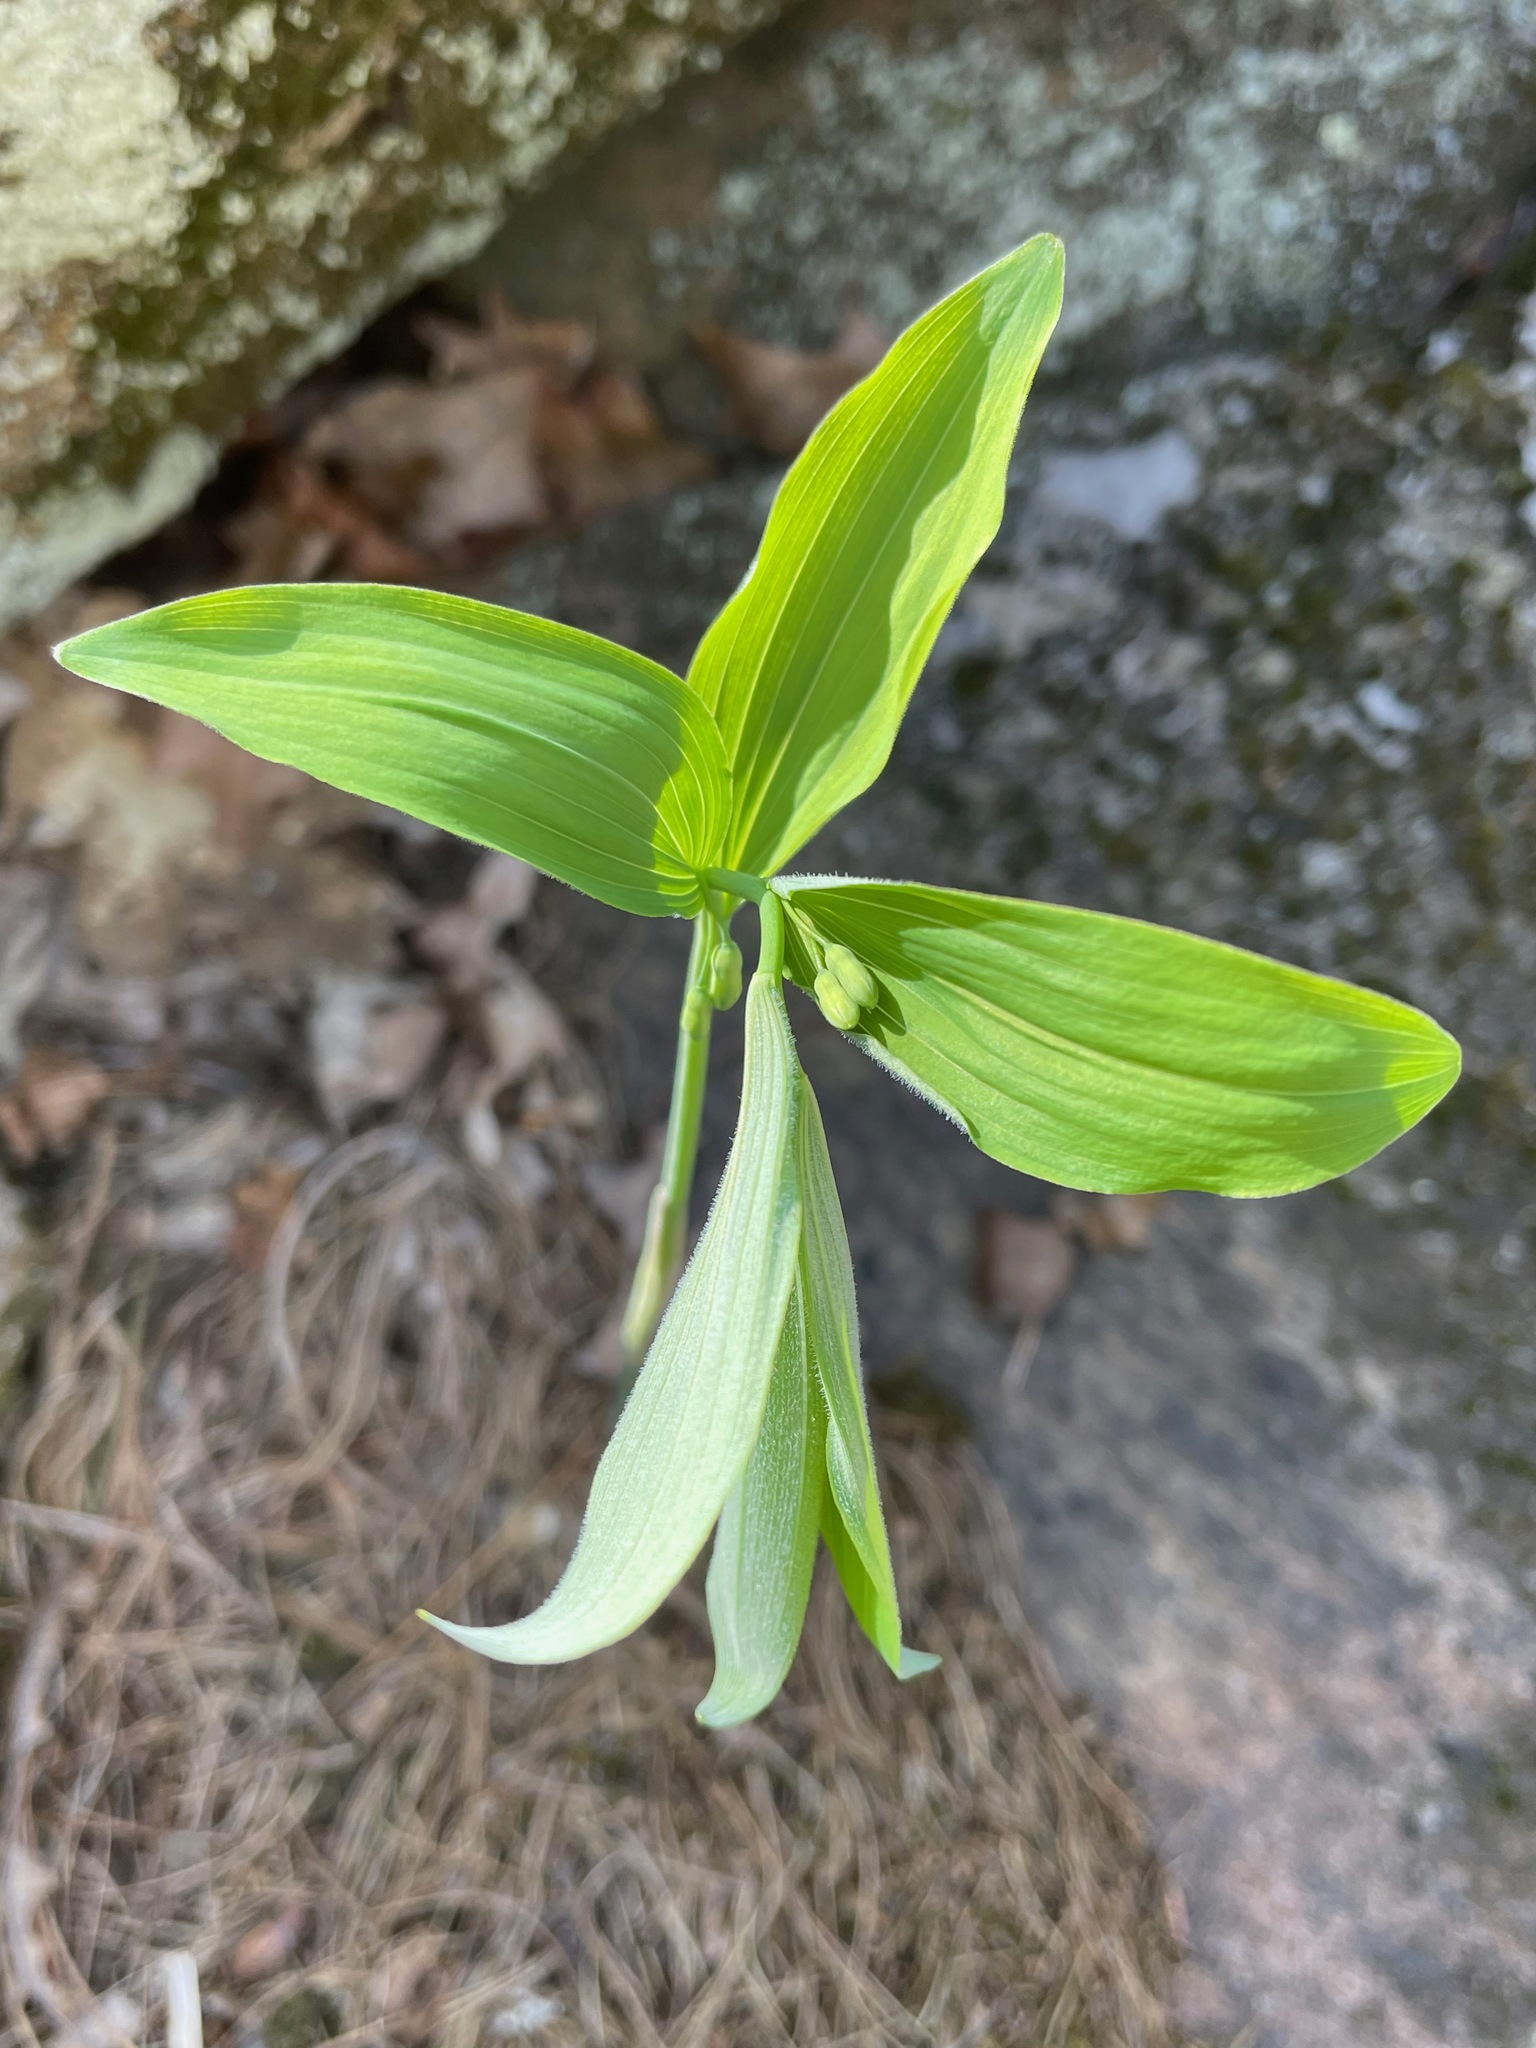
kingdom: Plantae
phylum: Tracheophyta
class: Liliopsida
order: Asparagales
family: Asparagaceae
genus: Polygonatum
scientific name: Polygonatum pubescens
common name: Downy solomon's seal
